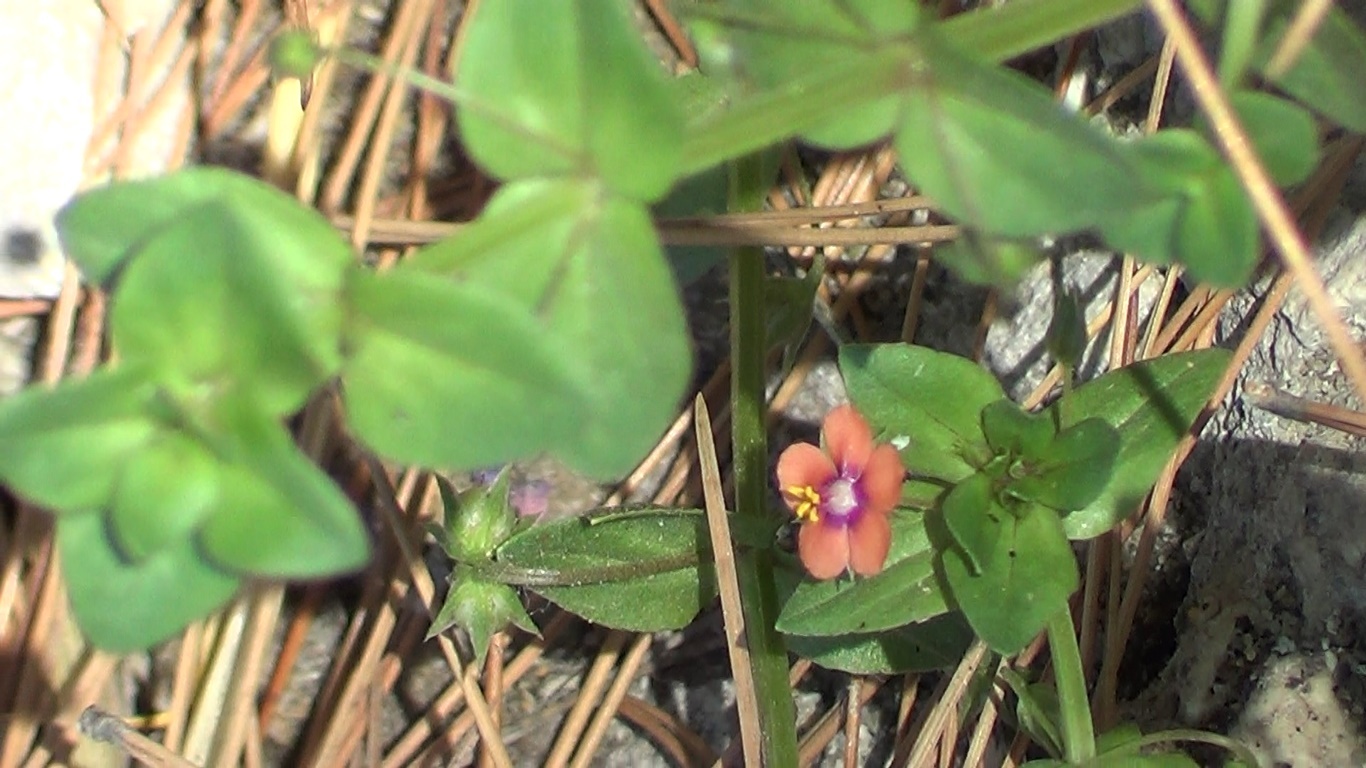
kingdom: Plantae
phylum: Tracheophyta
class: Magnoliopsida
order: Ericales
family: Primulaceae
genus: Lysimachia
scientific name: Lysimachia arvensis
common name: Scarlet pimpernel
